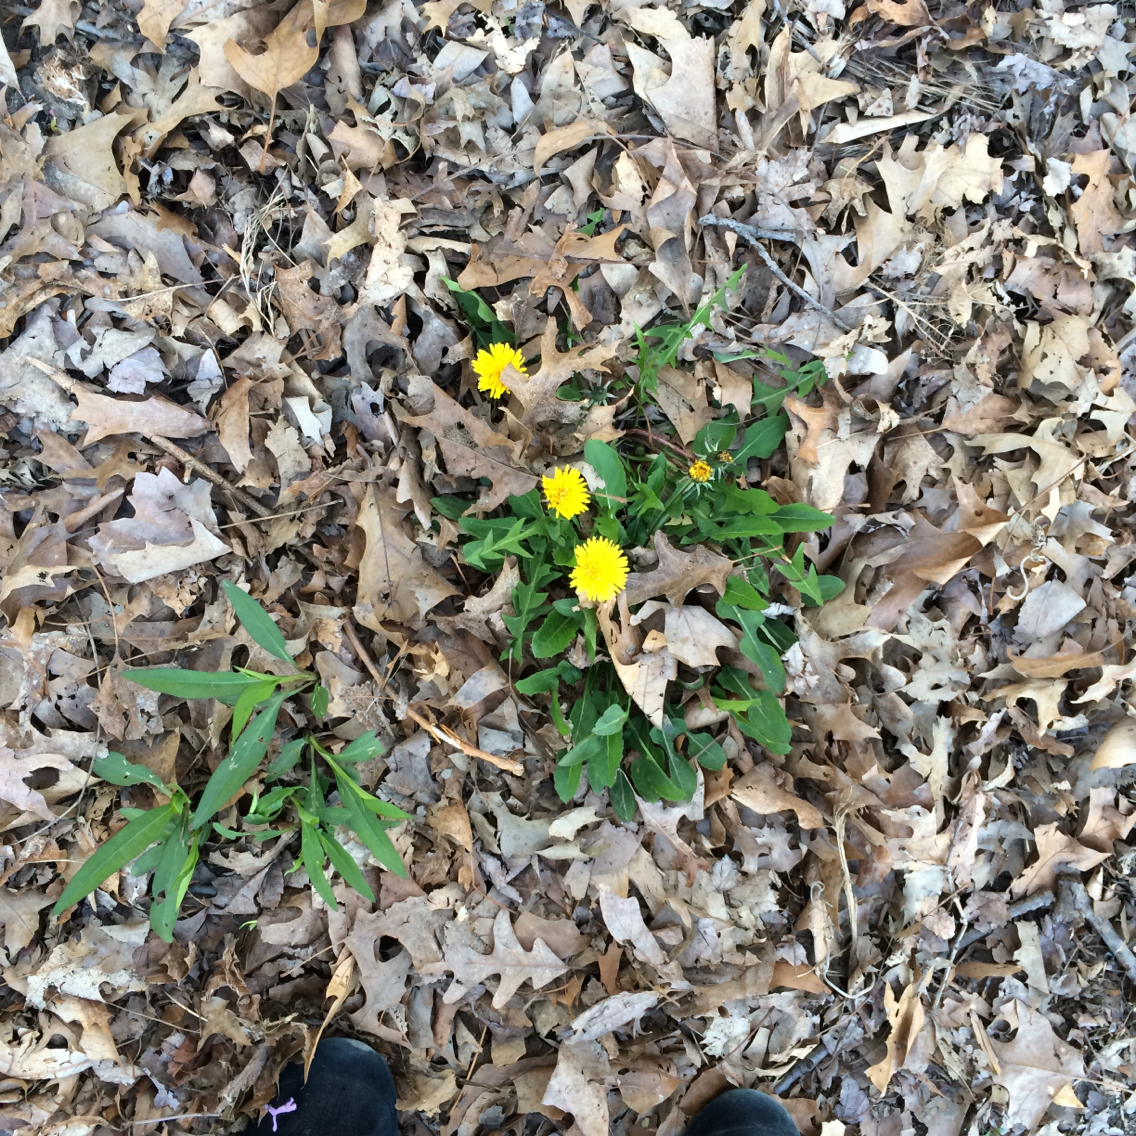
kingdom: Plantae
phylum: Tracheophyta
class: Magnoliopsida
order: Asterales
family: Asteraceae
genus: Taraxacum
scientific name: Taraxacum officinale
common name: Common dandelion
